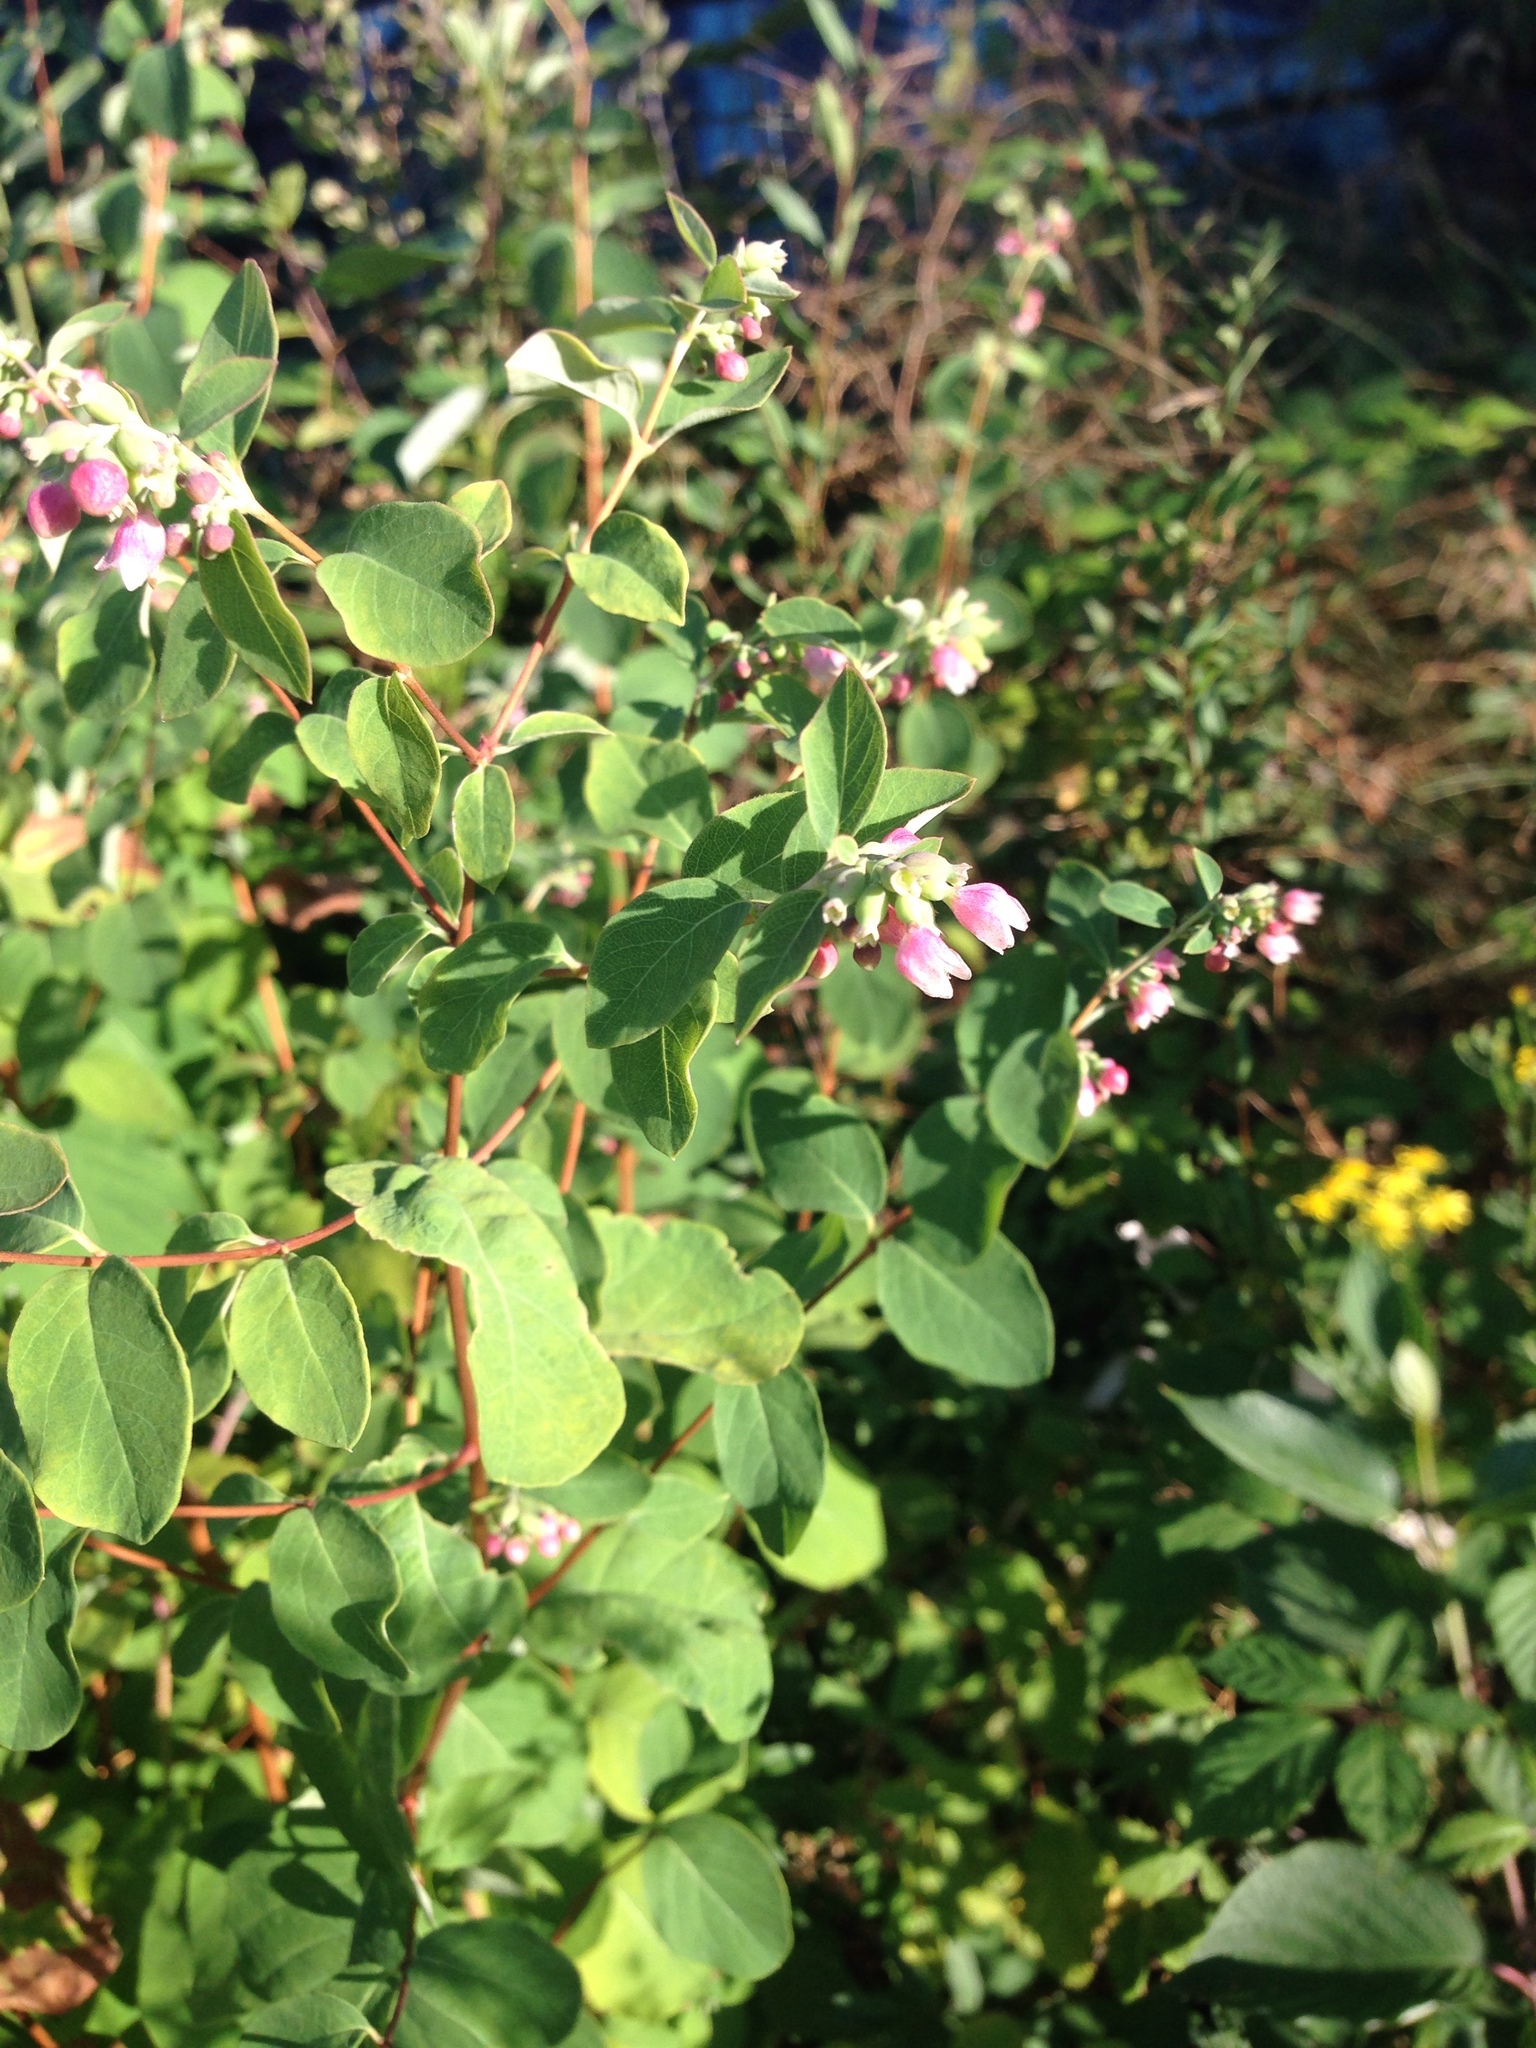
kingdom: Plantae
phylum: Tracheophyta
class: Magnoliopsida
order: Dipsacales
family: Caprifoliaceae
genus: Symphoricarpos
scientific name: Symphoricarpos albus
